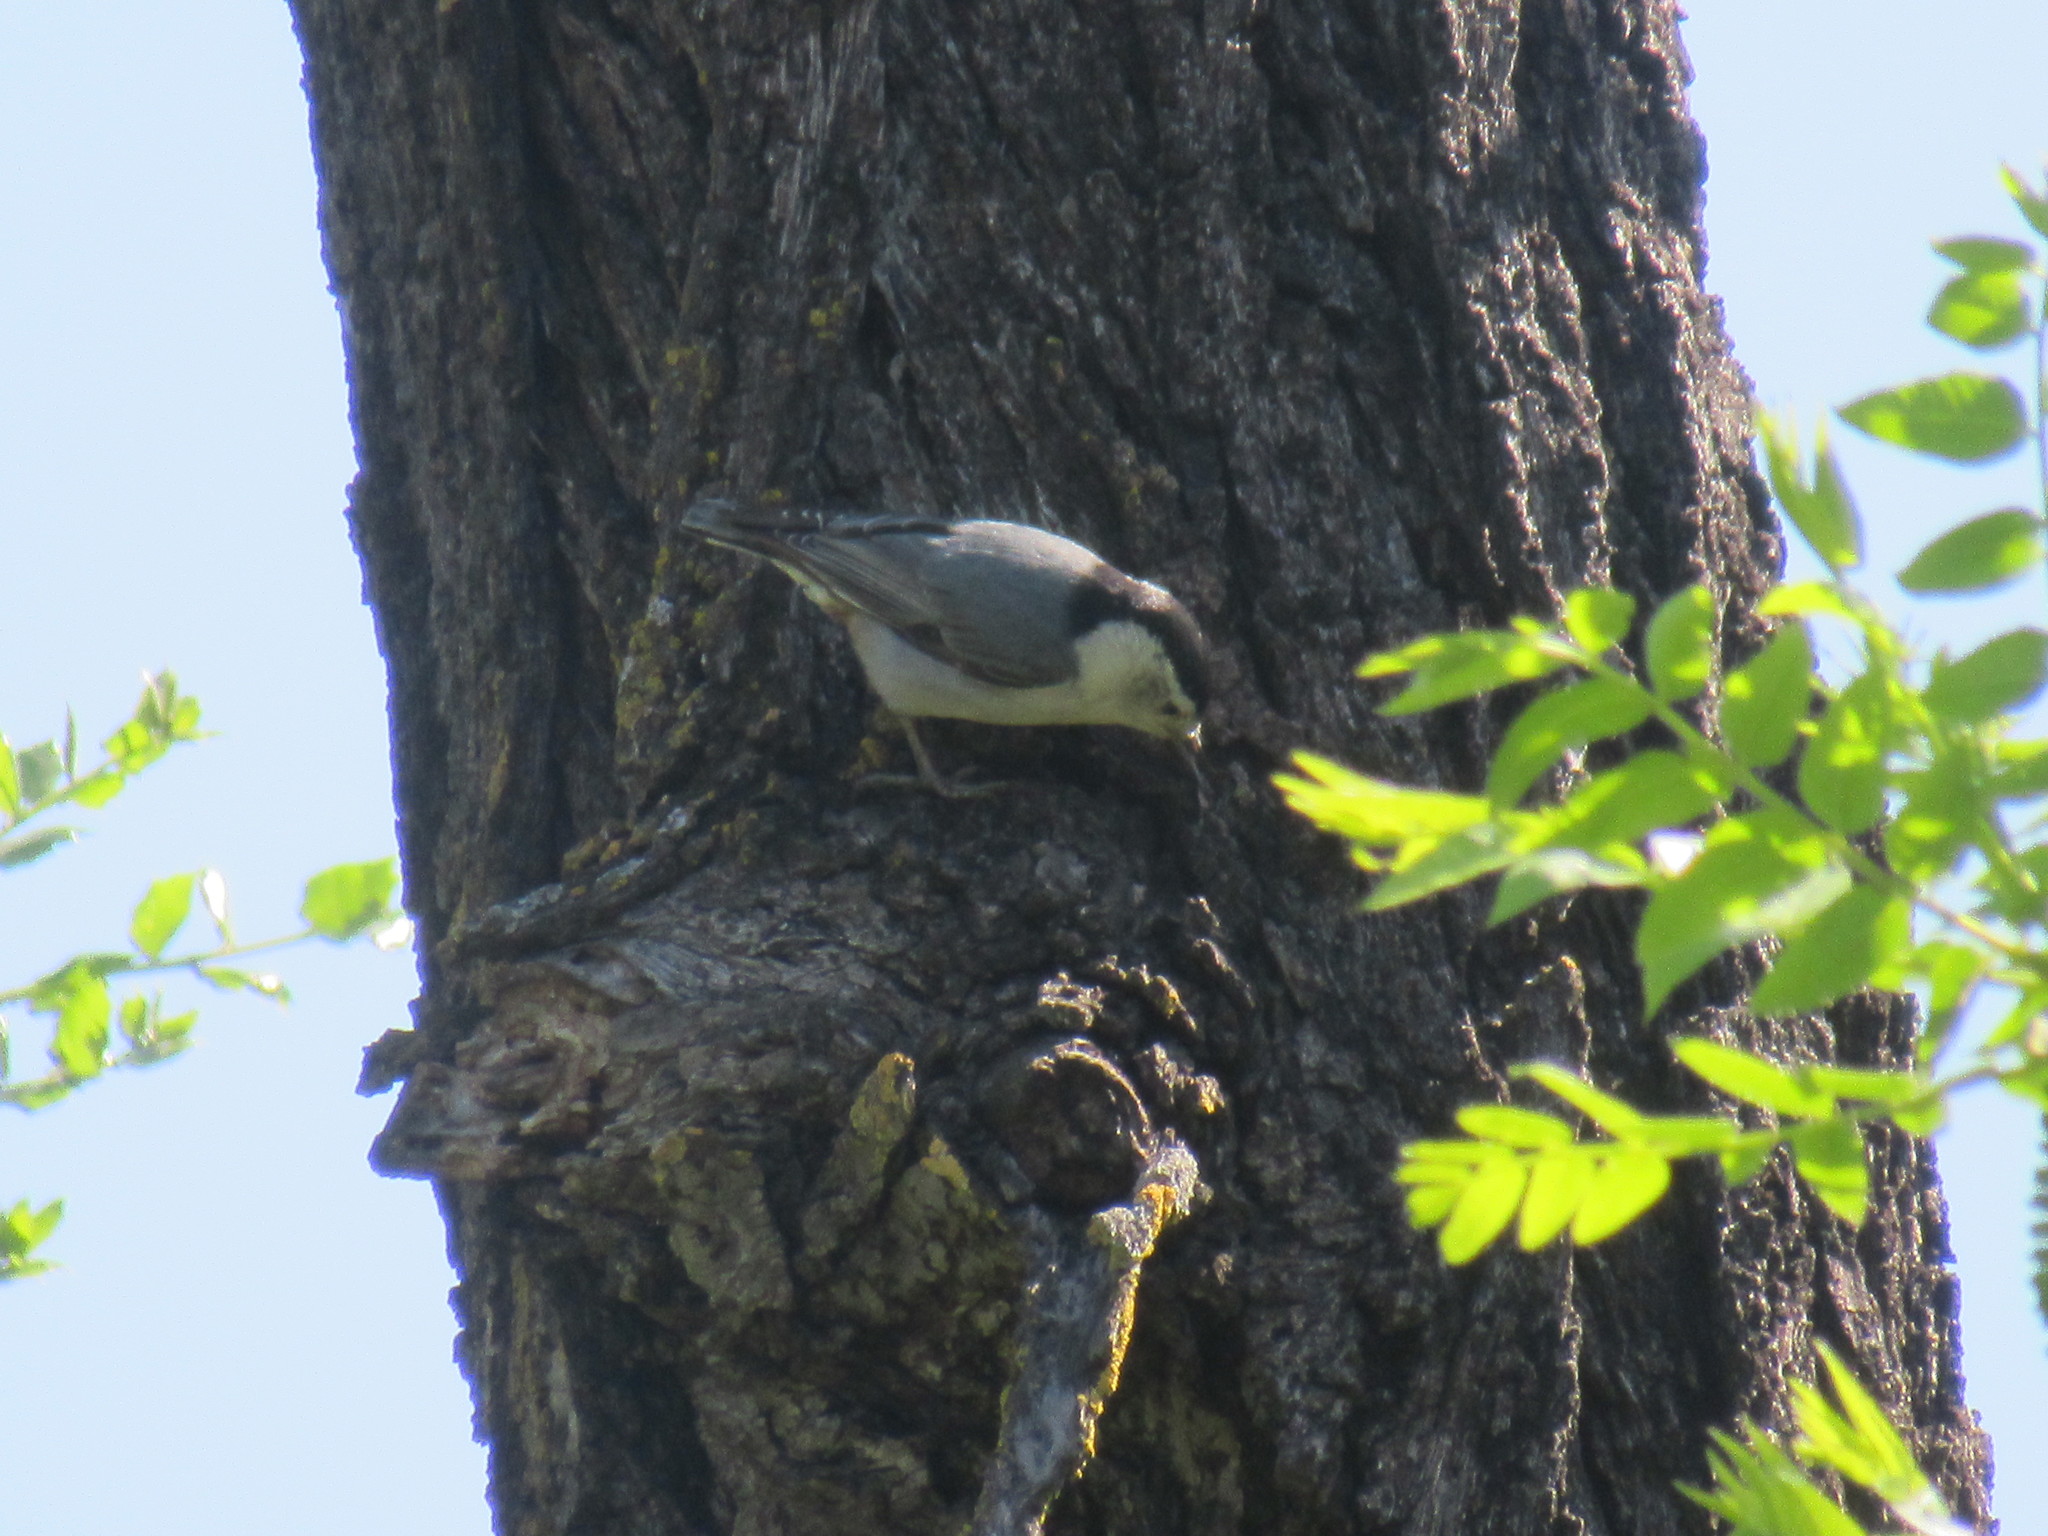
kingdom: Animalia
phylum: Chordata
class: Aves
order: Passeriformes
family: Sittidae
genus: Sitta
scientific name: Sitta carolinensis
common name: White-breasted nuthatch
